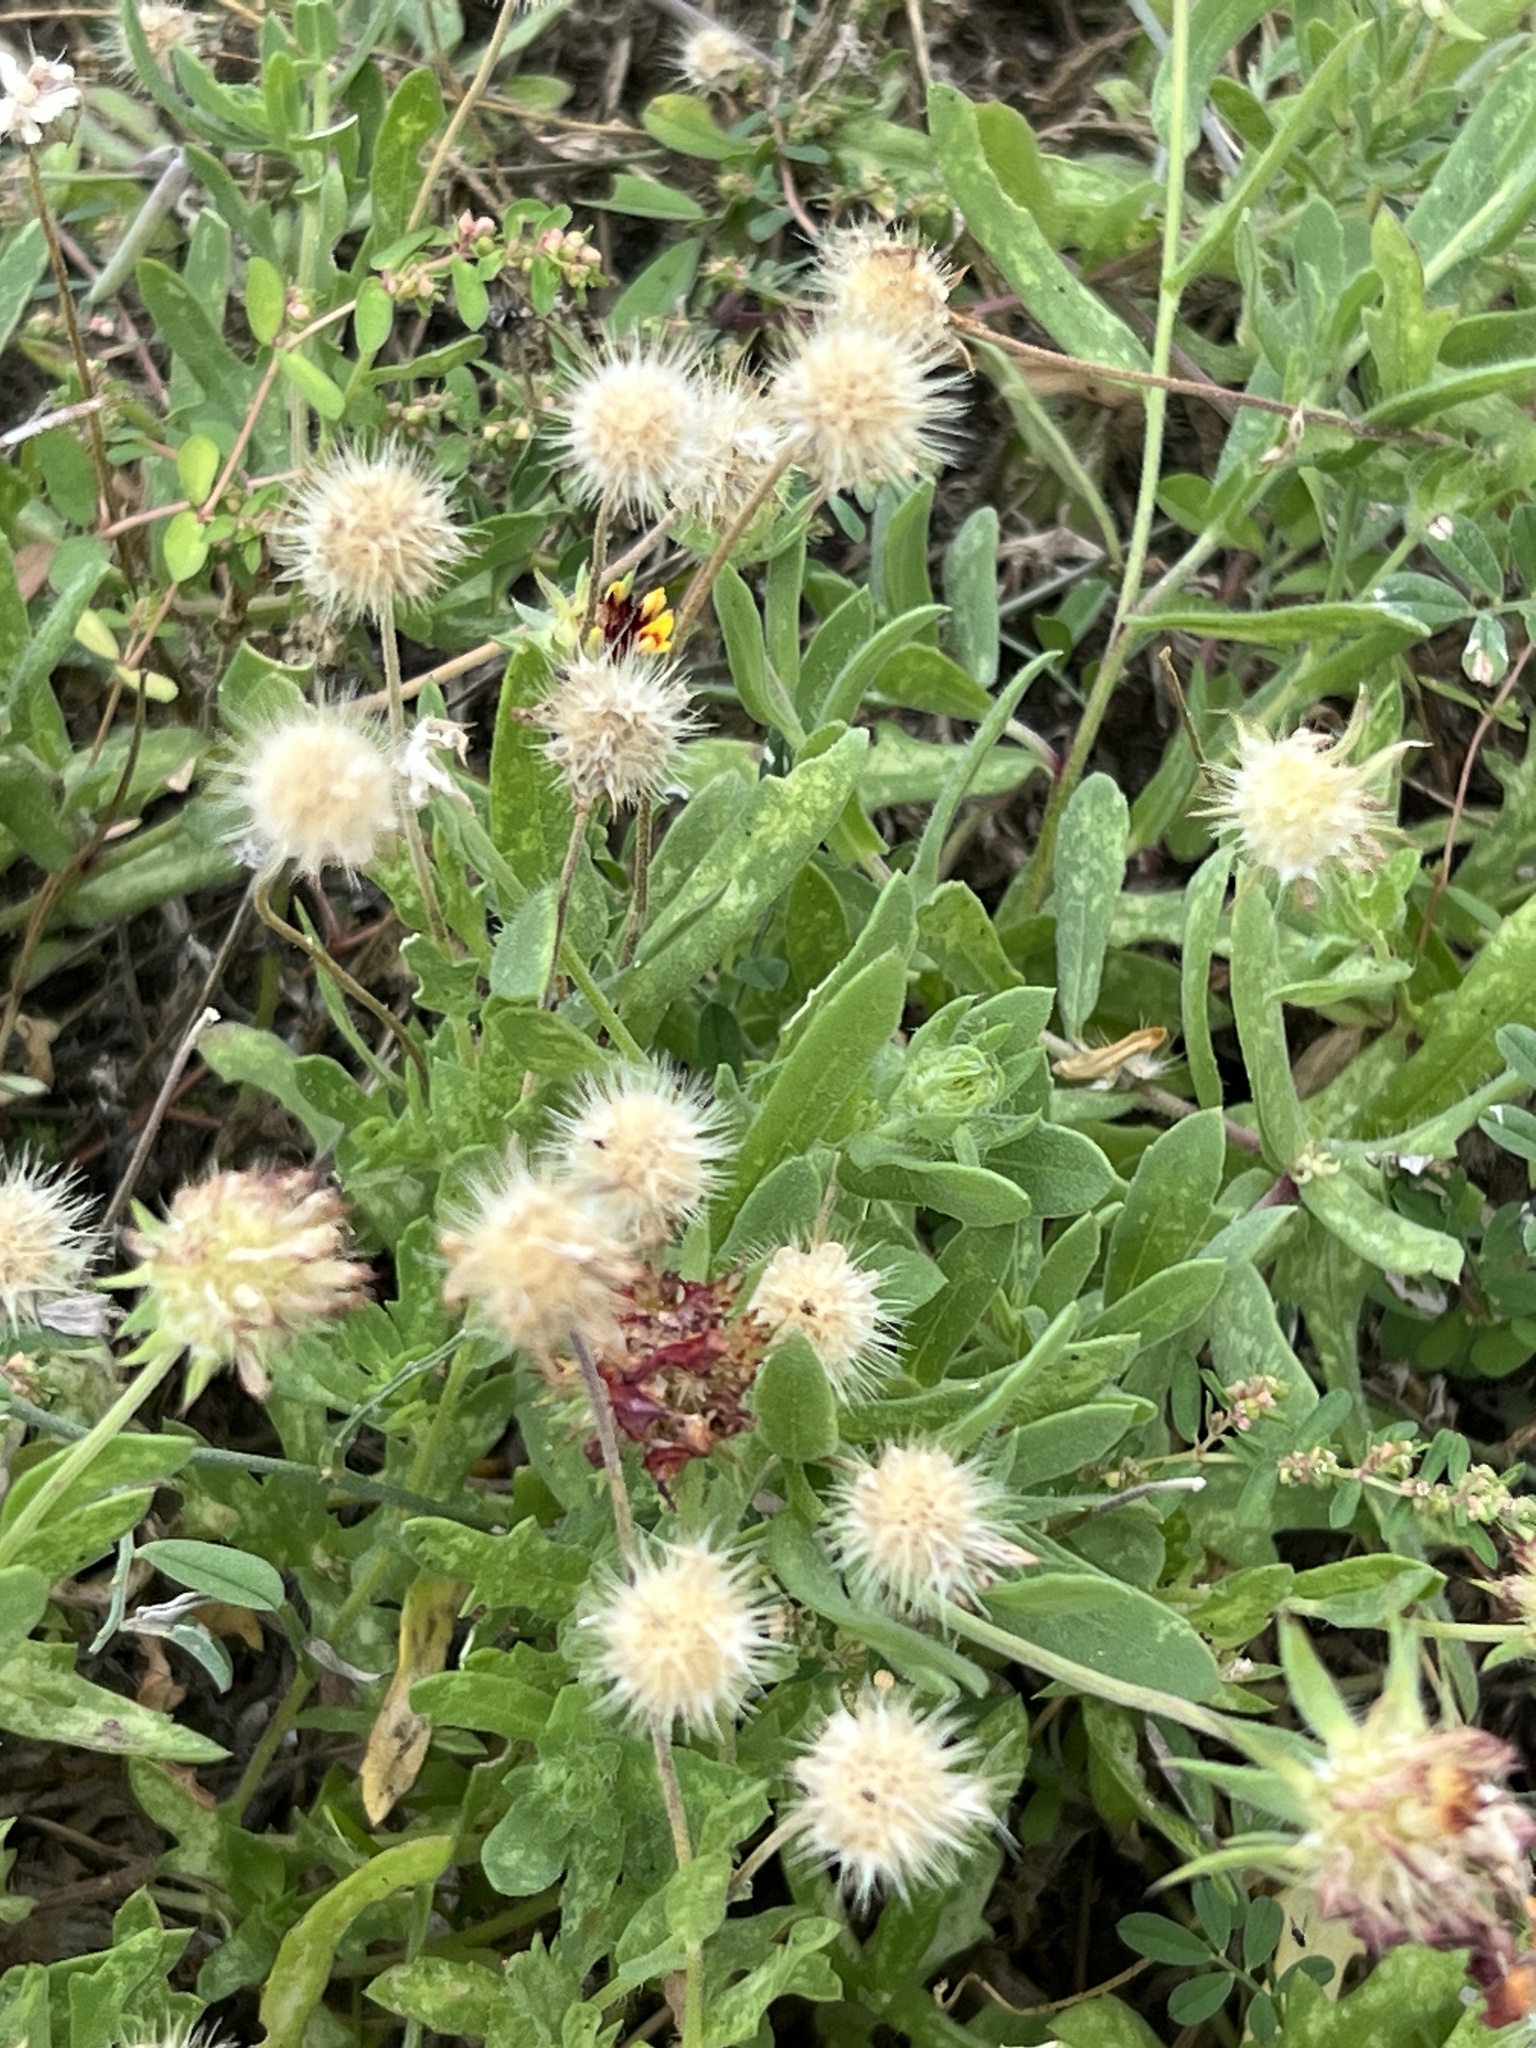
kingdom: Plantae
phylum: Tracheophyta
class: Magnoliopsida
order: Asterales
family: Asteraceae
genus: Gaillardia
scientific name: Gaillardia pulchella
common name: Firewheel
